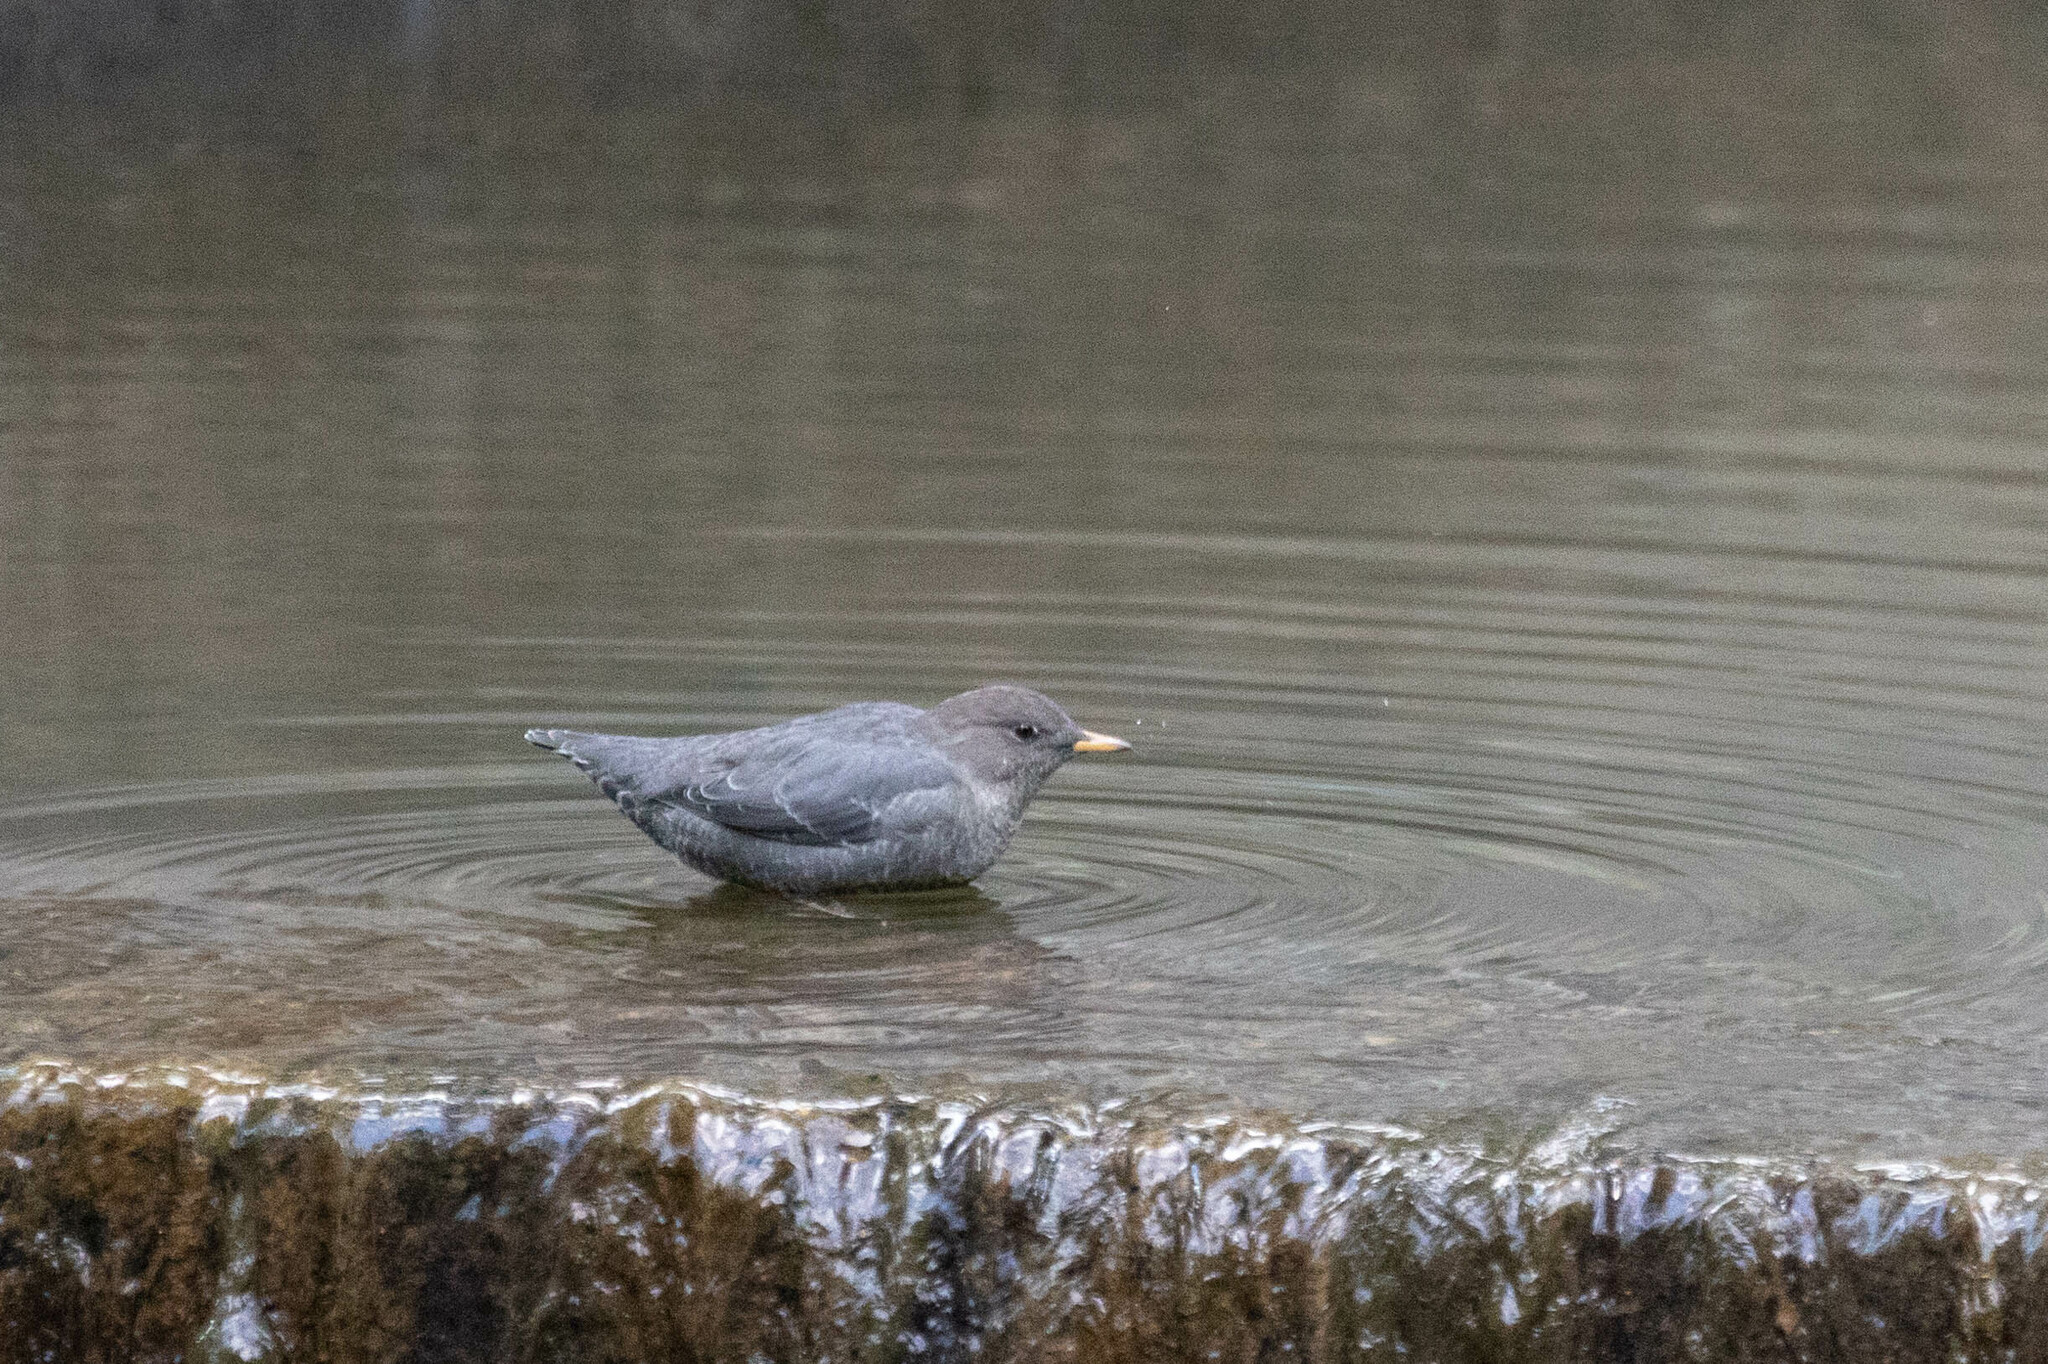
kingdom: Animalia
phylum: Chordata
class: Aves
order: Passeriformes
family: Cinclidae
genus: Cinclus
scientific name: Cinclus mexicanus
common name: American dipper
